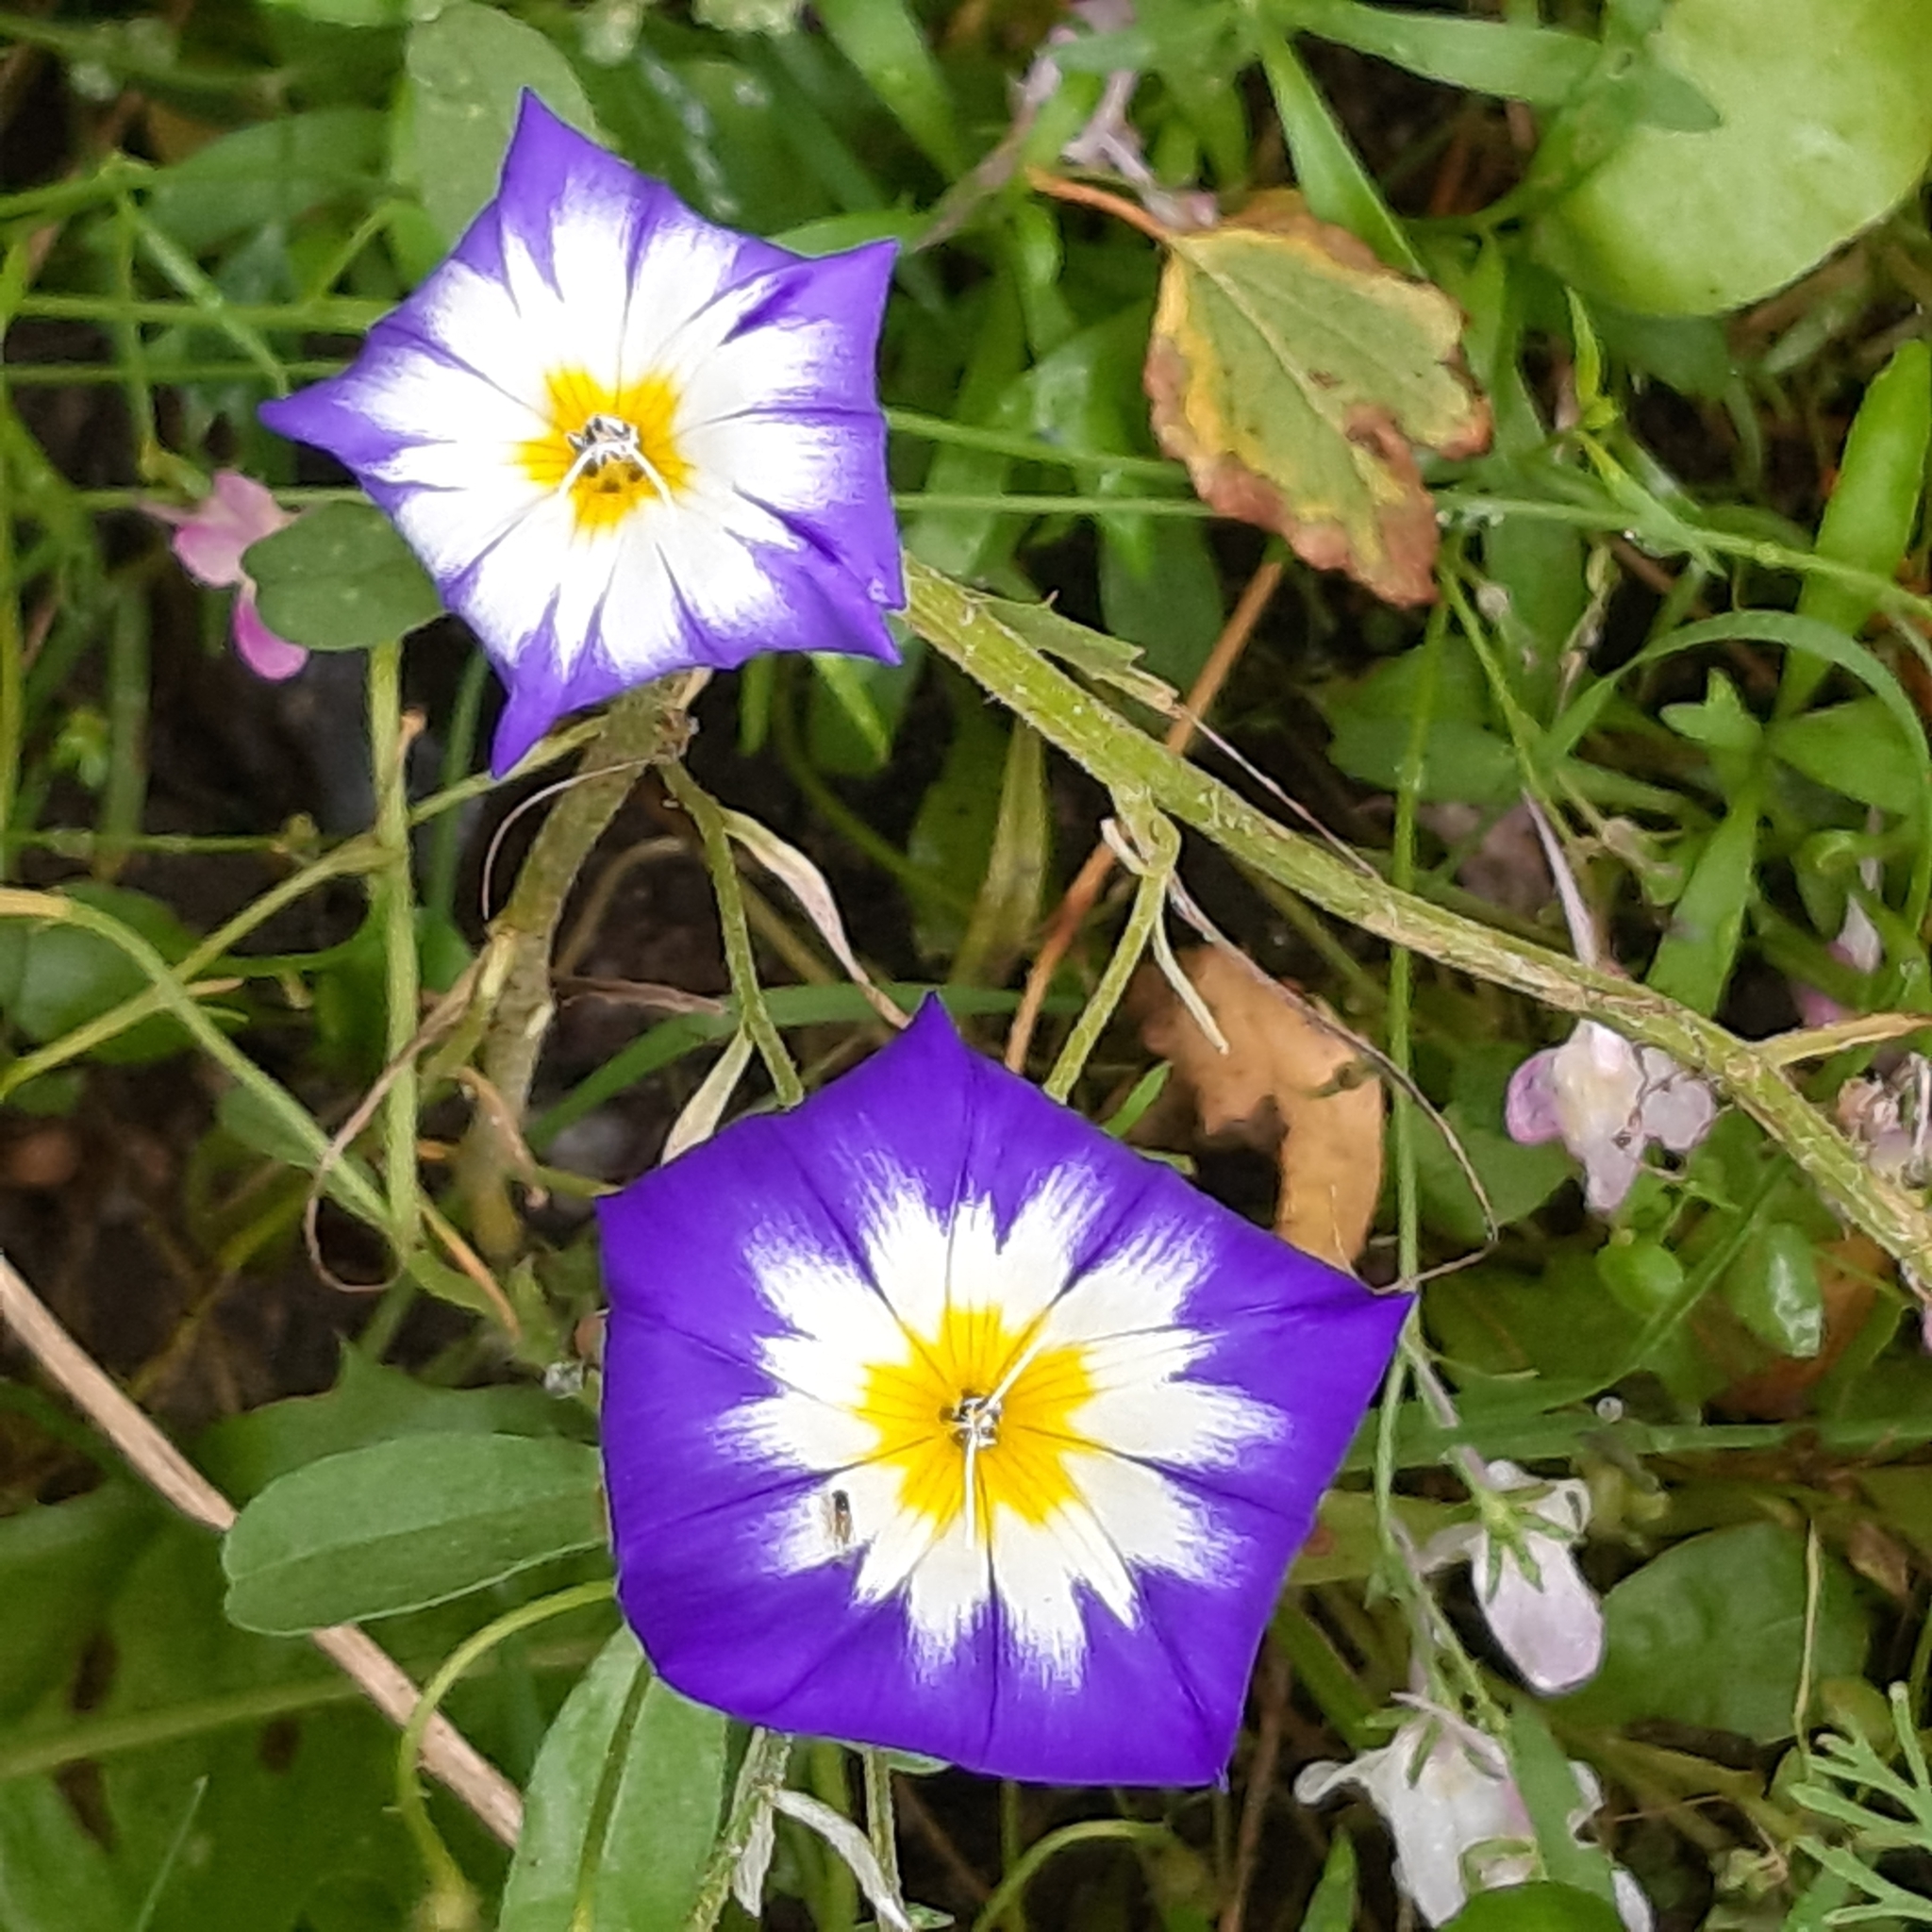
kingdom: Plantae
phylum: Tracheophyta
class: Magnoliopsida
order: Solanales
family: Convolvulaceae
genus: Convolvulus
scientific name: Convolvulus tricolor
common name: Dwarf morning-glory
